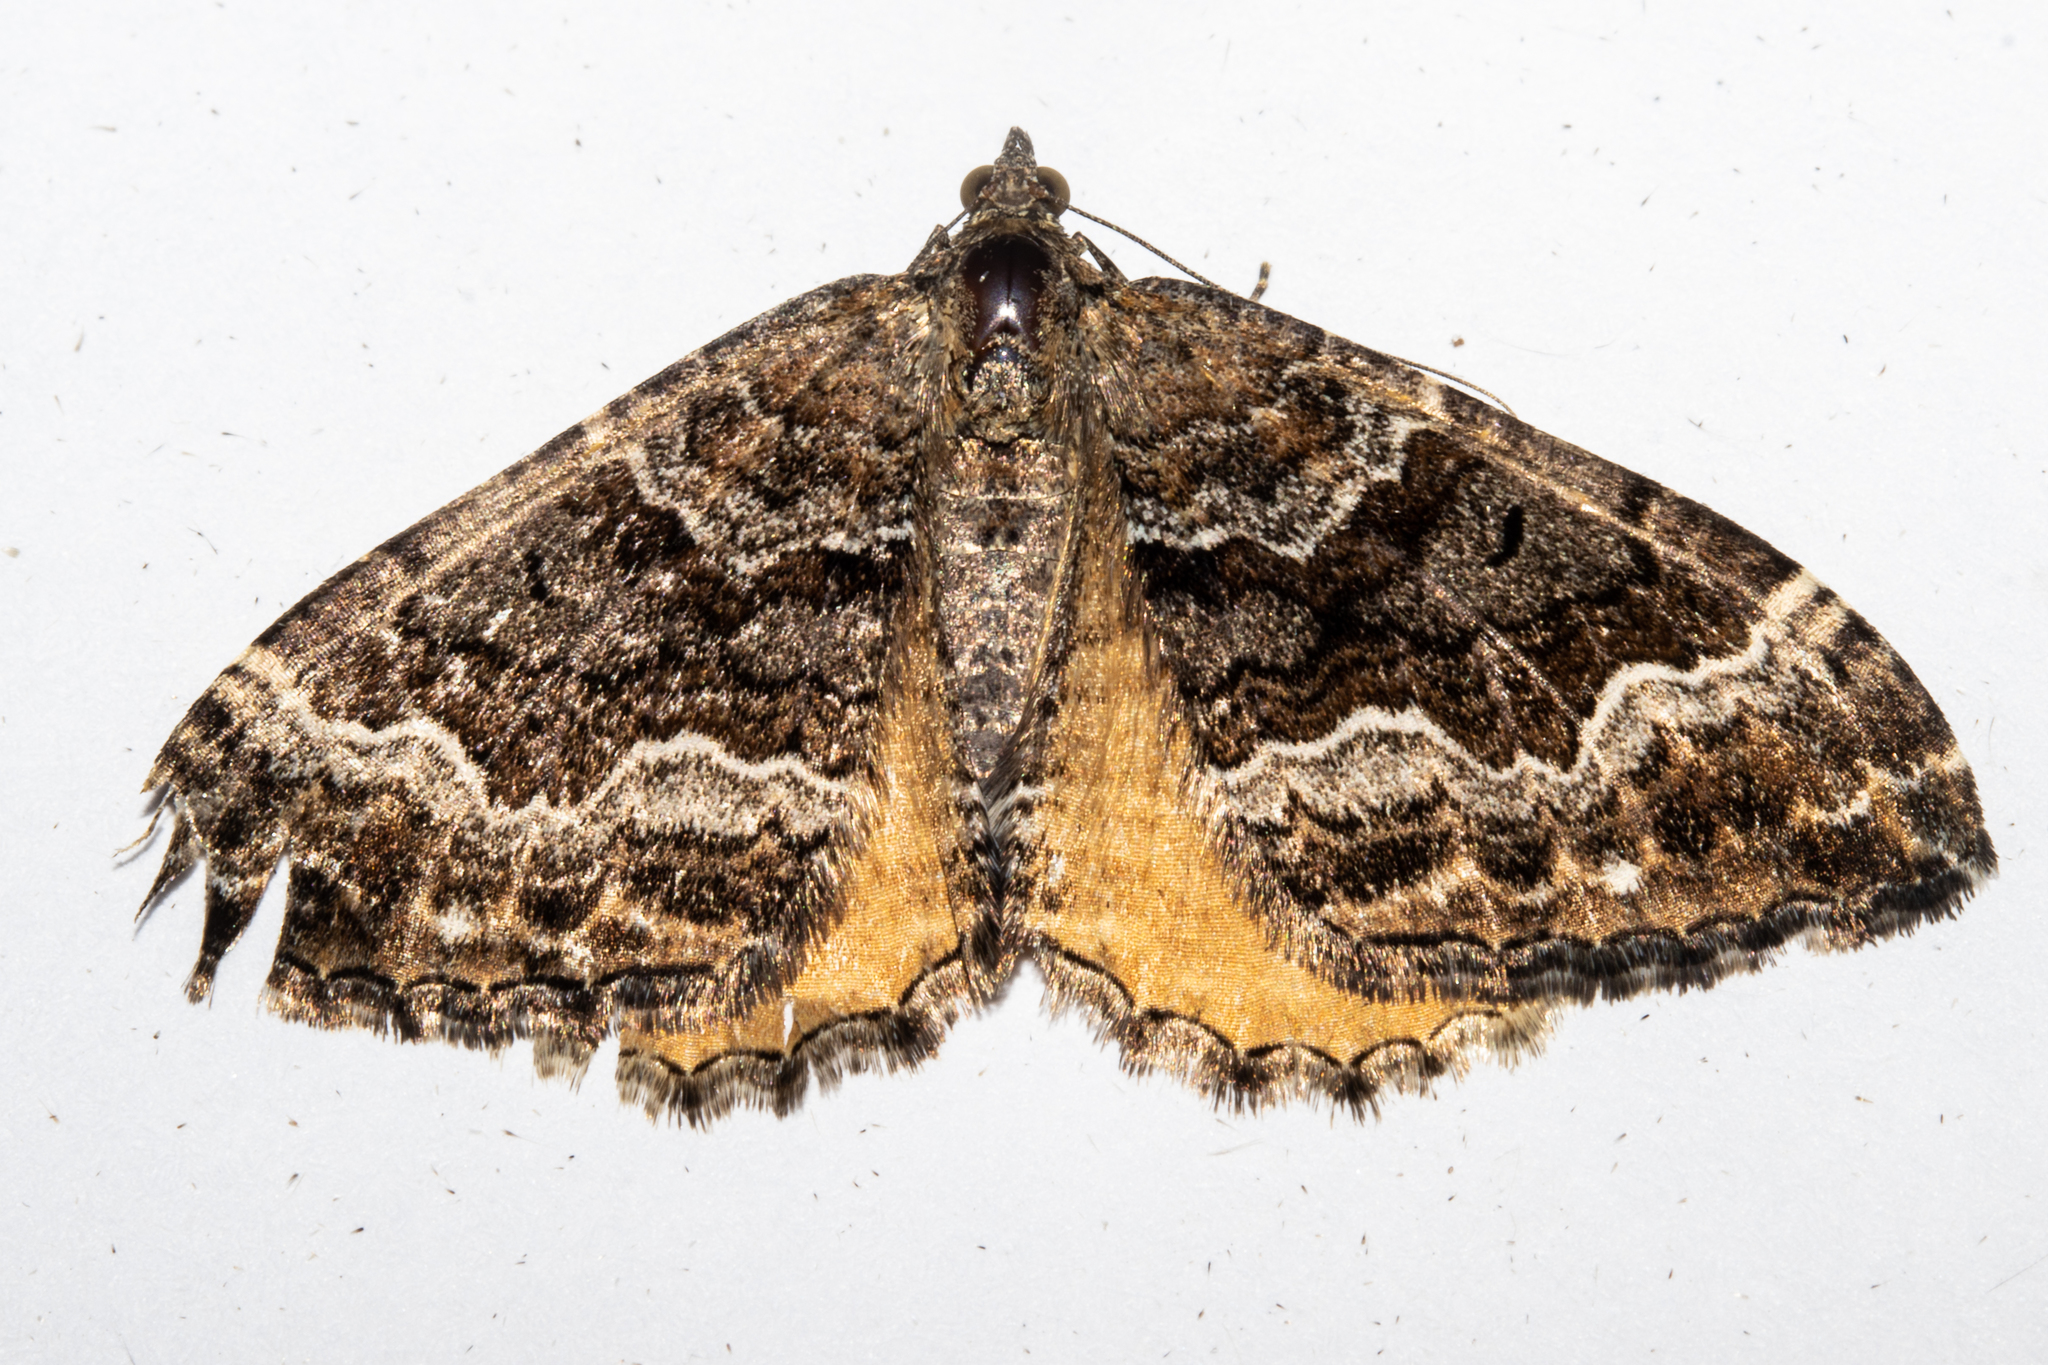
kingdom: Animalia
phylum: Arthropoda
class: Insecta
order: Lepidoptera
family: Geometridae
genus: Hydriomena
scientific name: Hydriomena deltoidata
